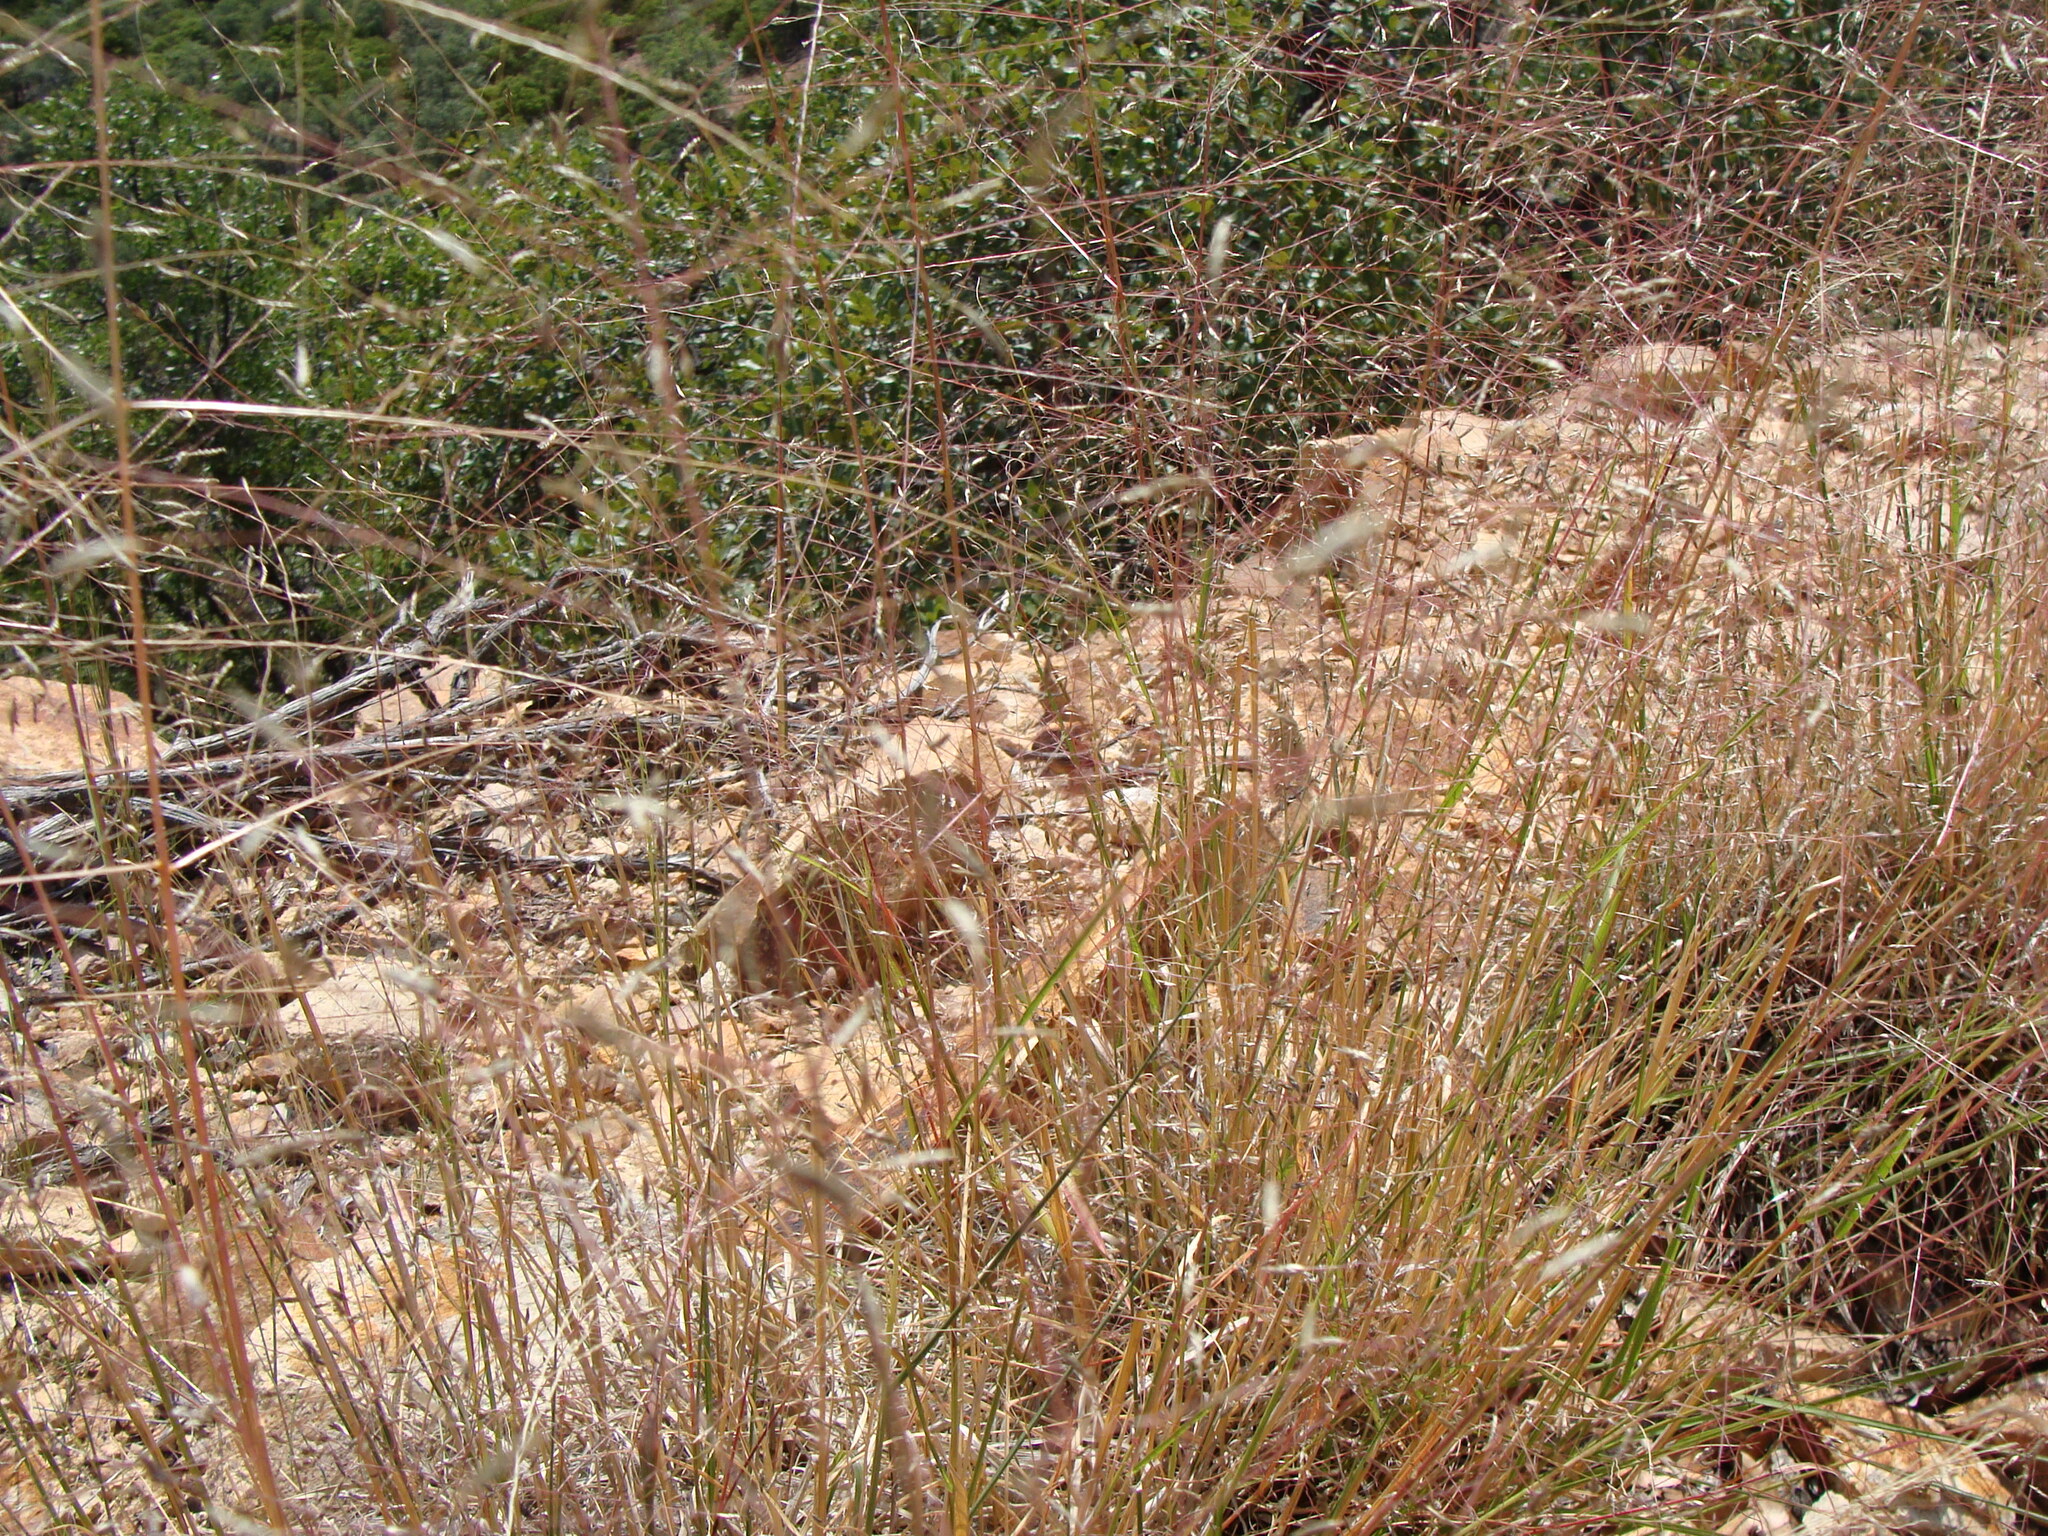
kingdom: Plantae
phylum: Tracheophyta
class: Liliopsida
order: Poales
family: Poaceae
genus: Eragrostis
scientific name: Eragrostis intermedia
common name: Plains love grass
